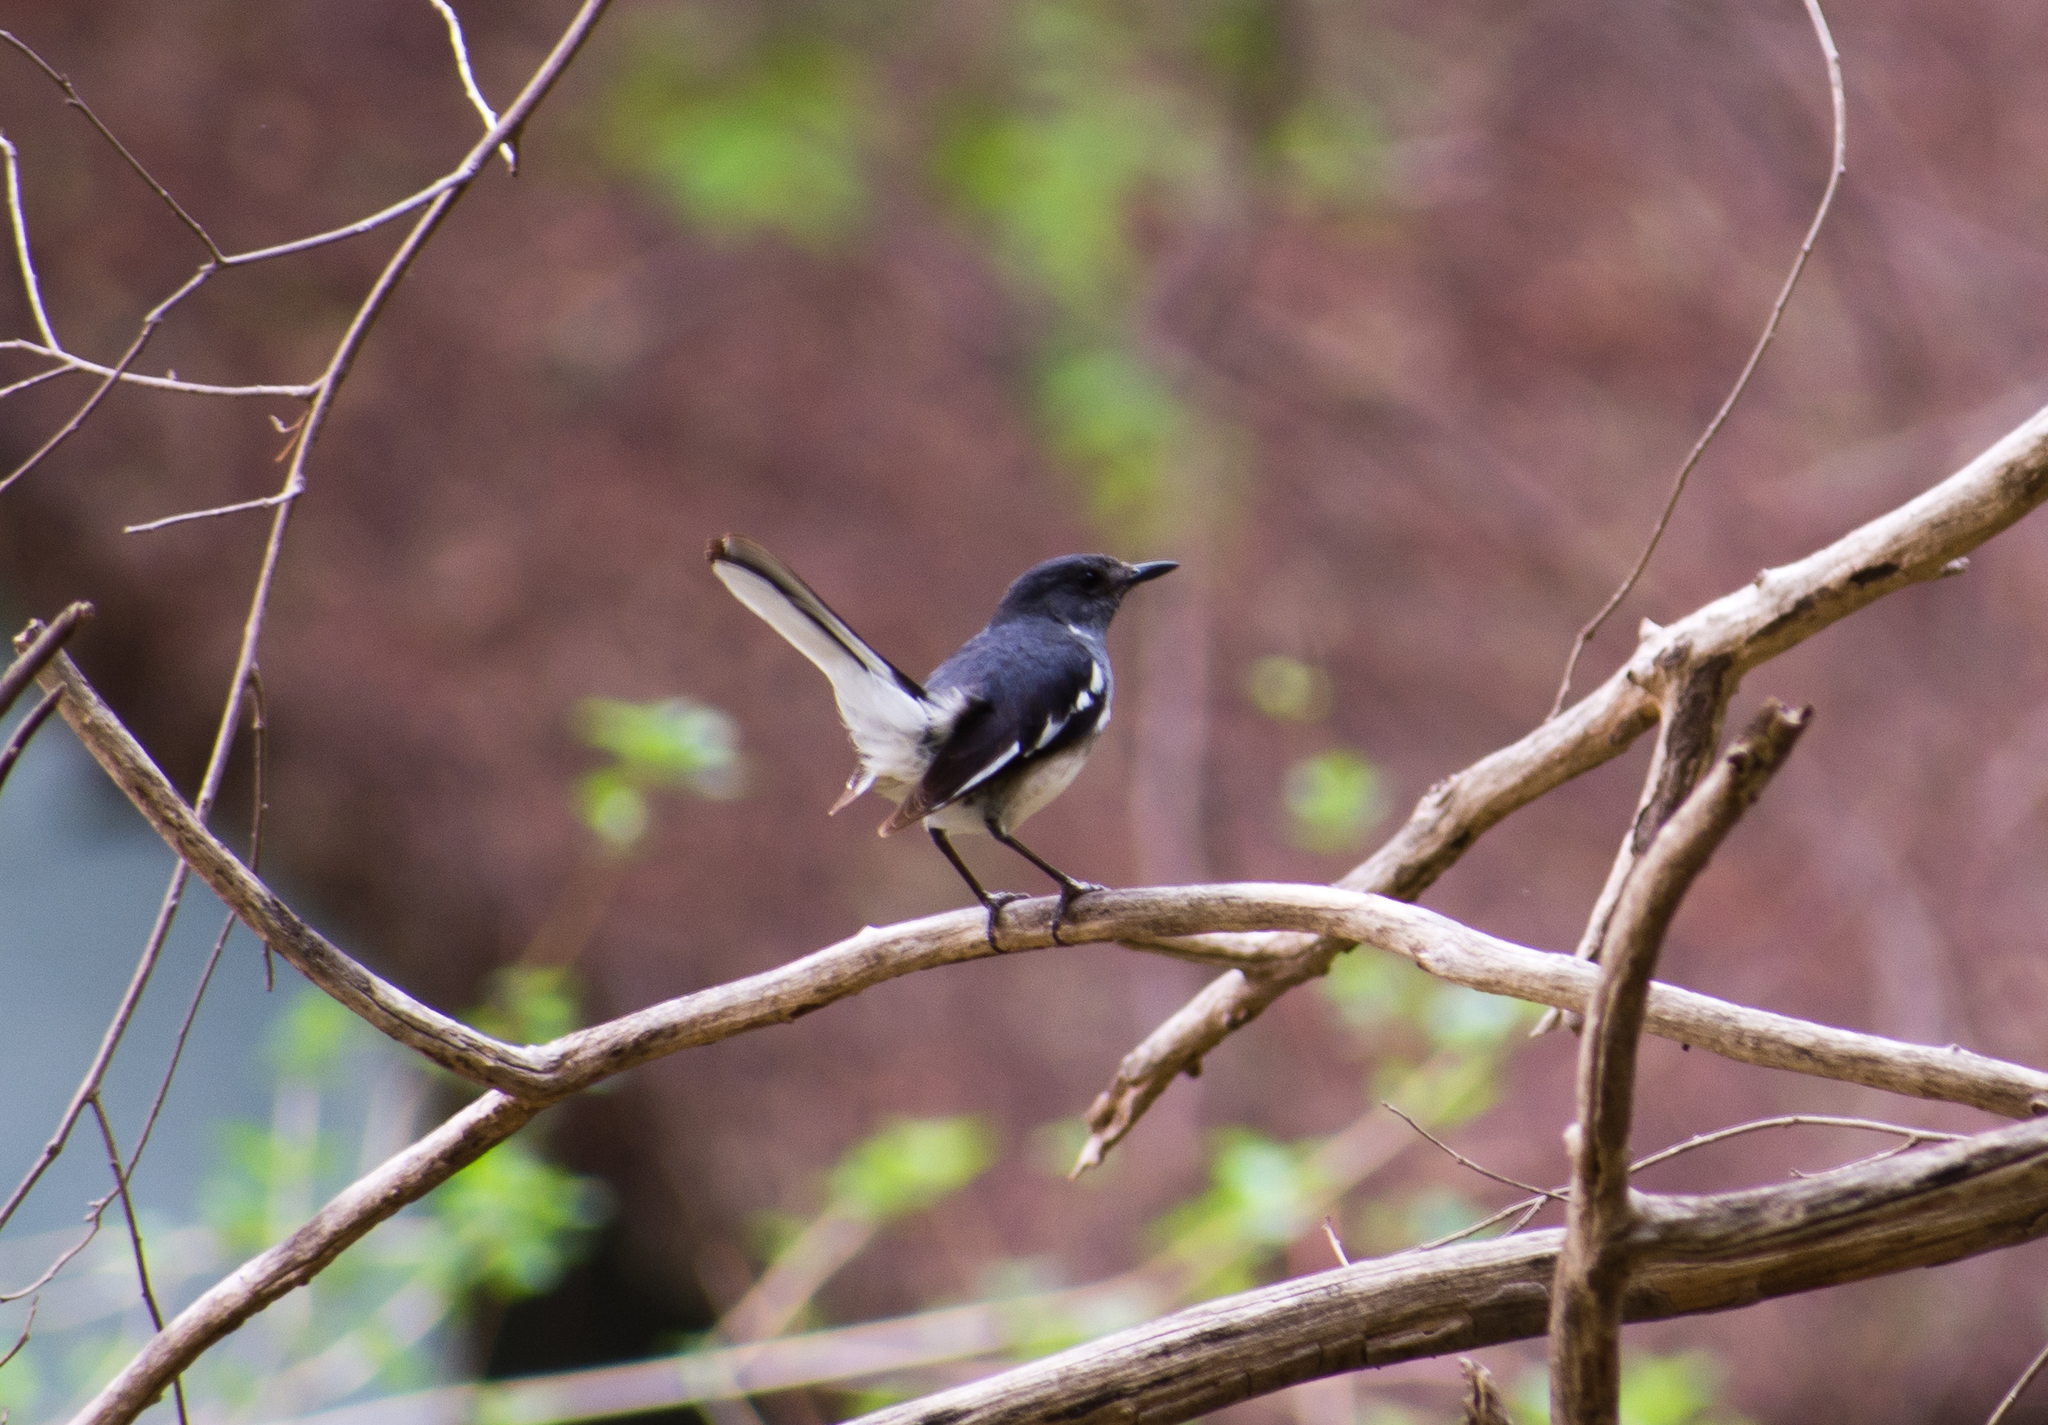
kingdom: Animalia
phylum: Chordata
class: Aves
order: Passeriformes
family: Muscicapidae
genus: Copsychus
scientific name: Copsychus saularis
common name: Oriental magpie-robin
